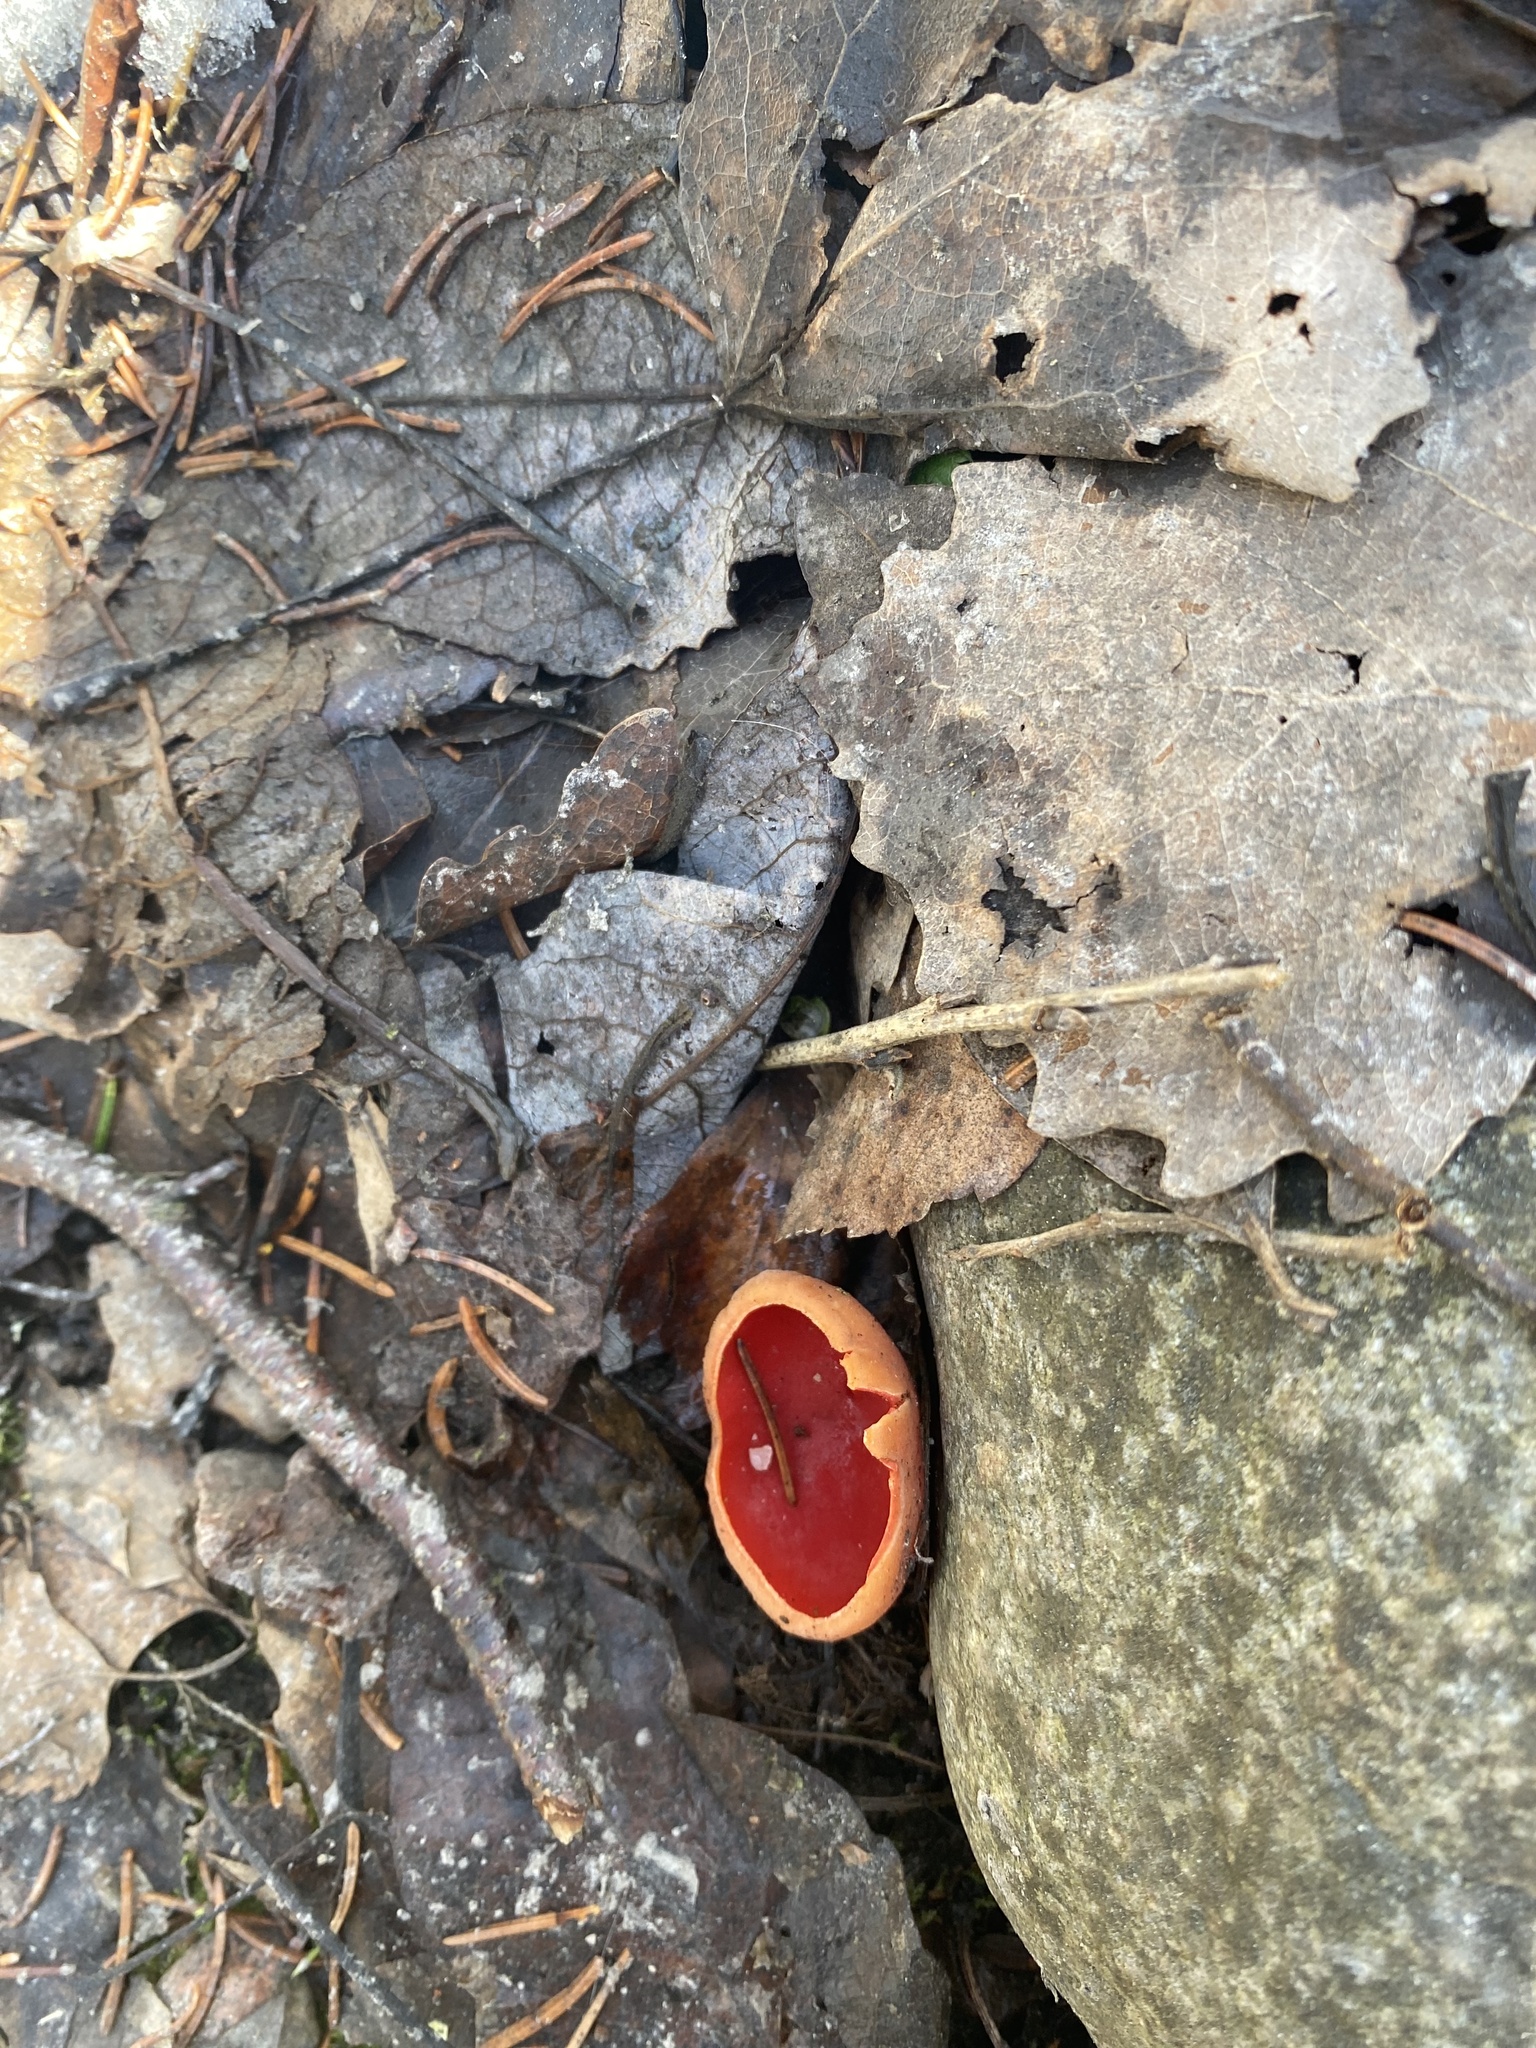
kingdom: Fungi
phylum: Ascomycota
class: Pezizomycetes
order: Pezizales
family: Sarcoscyphaceae
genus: Sarcoscypha
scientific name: Sarcoscypha
